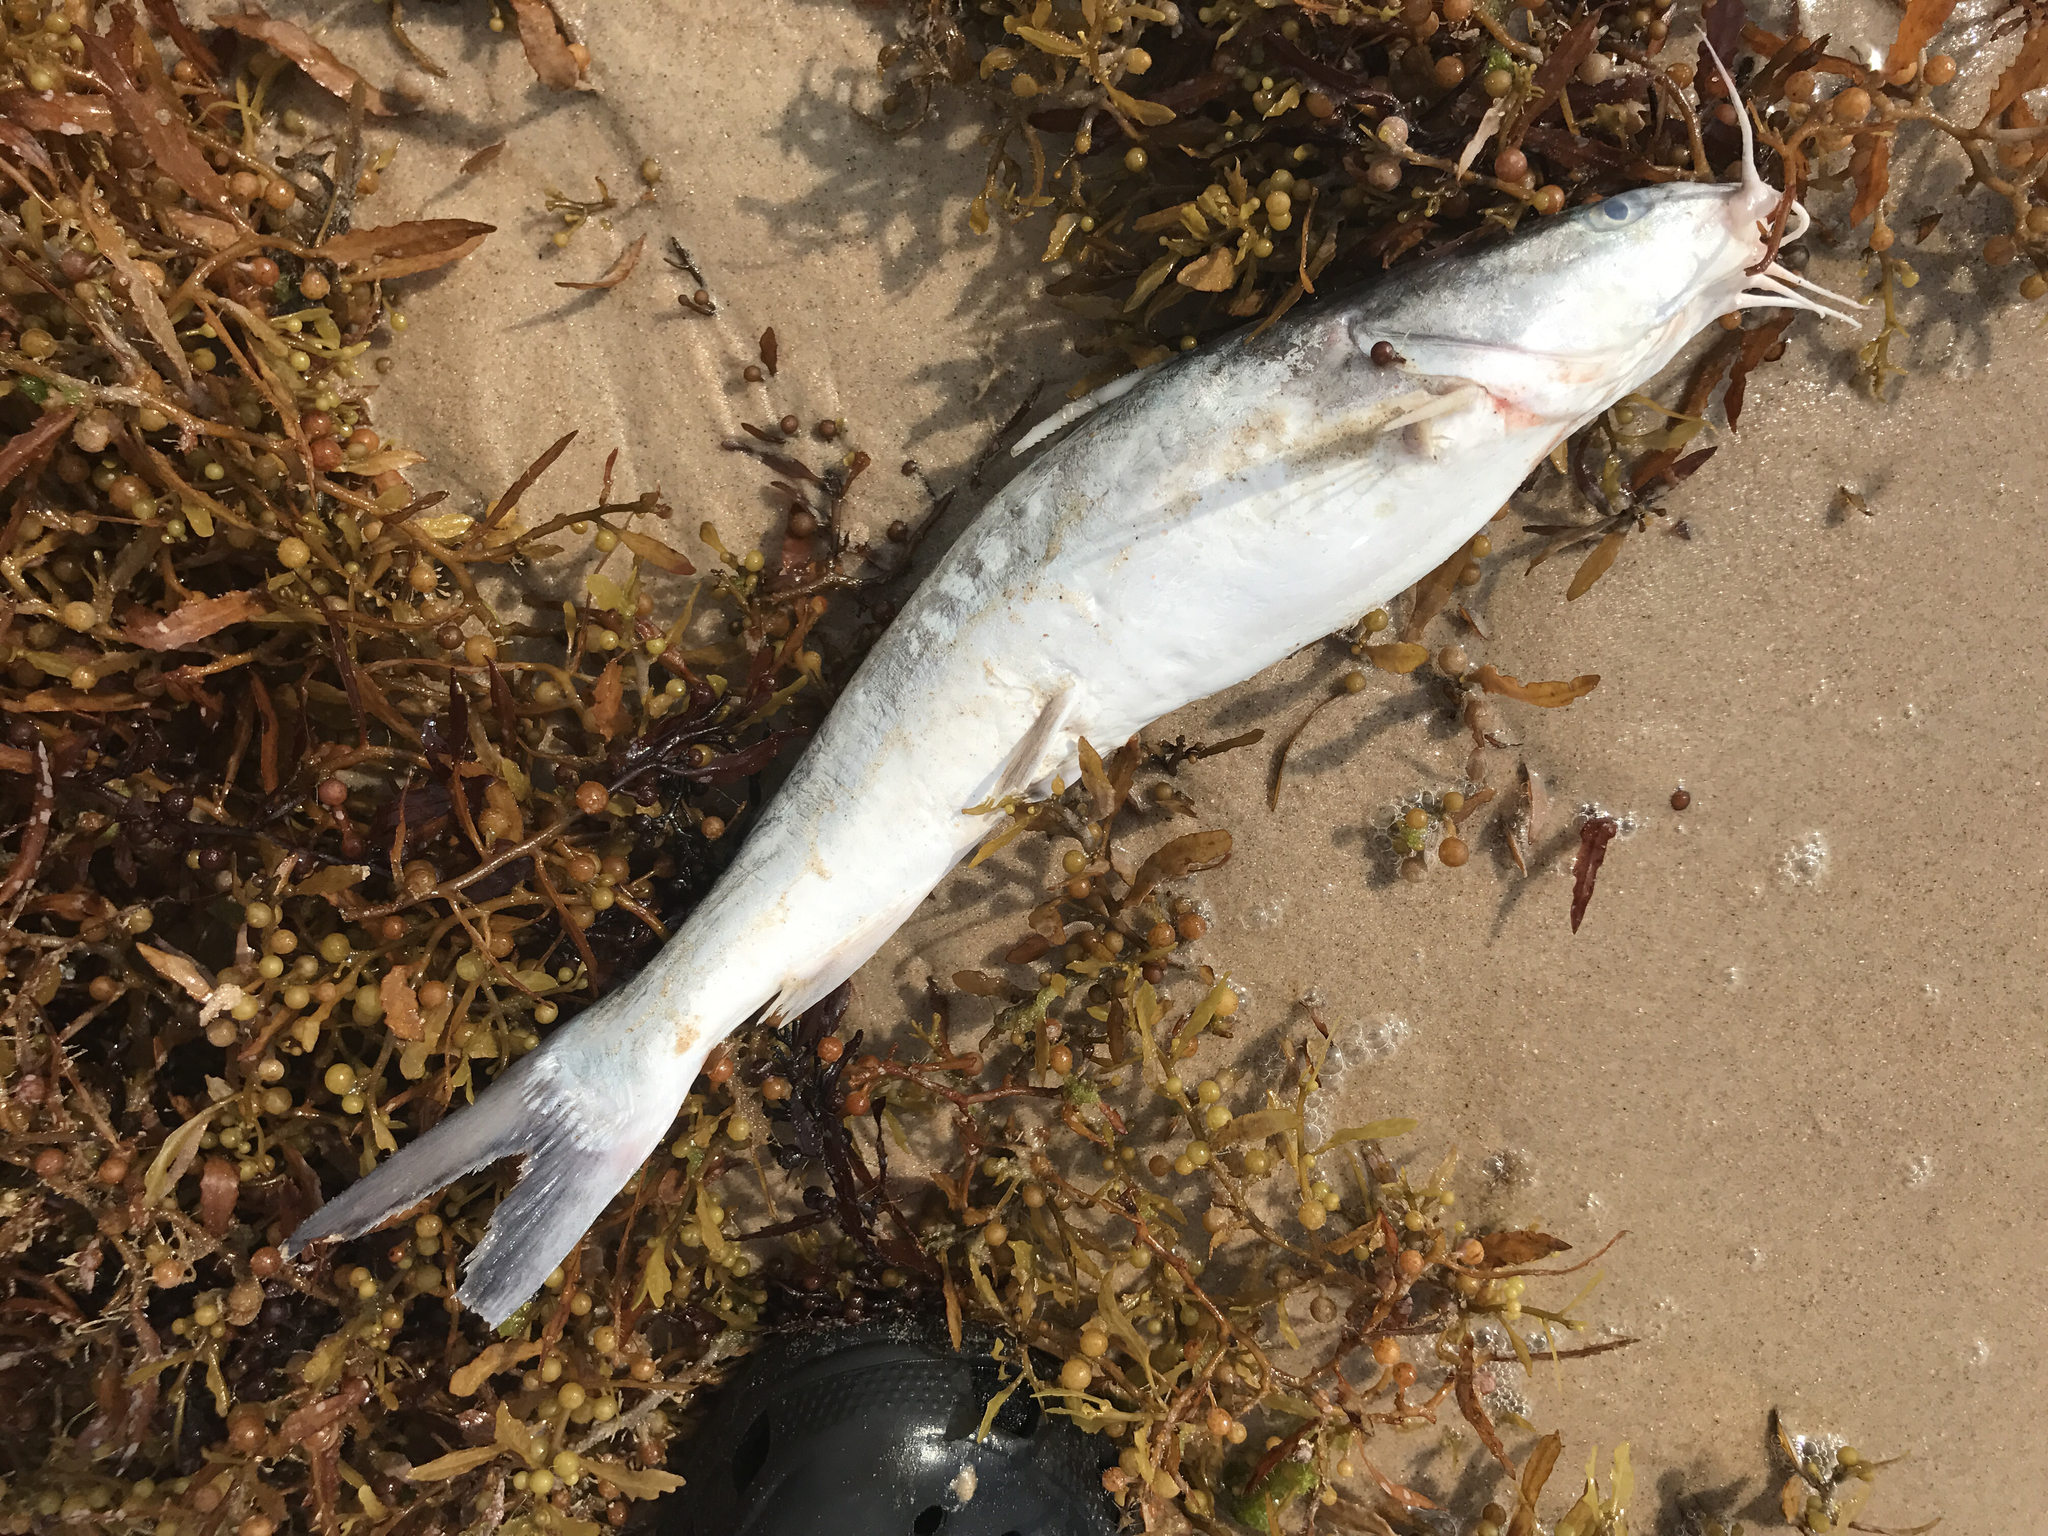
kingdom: Animalia
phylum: Chordata
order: Siluriformes
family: Ariidae
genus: Ariopsis
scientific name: Ariopsis felis
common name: Hardhead catfish
